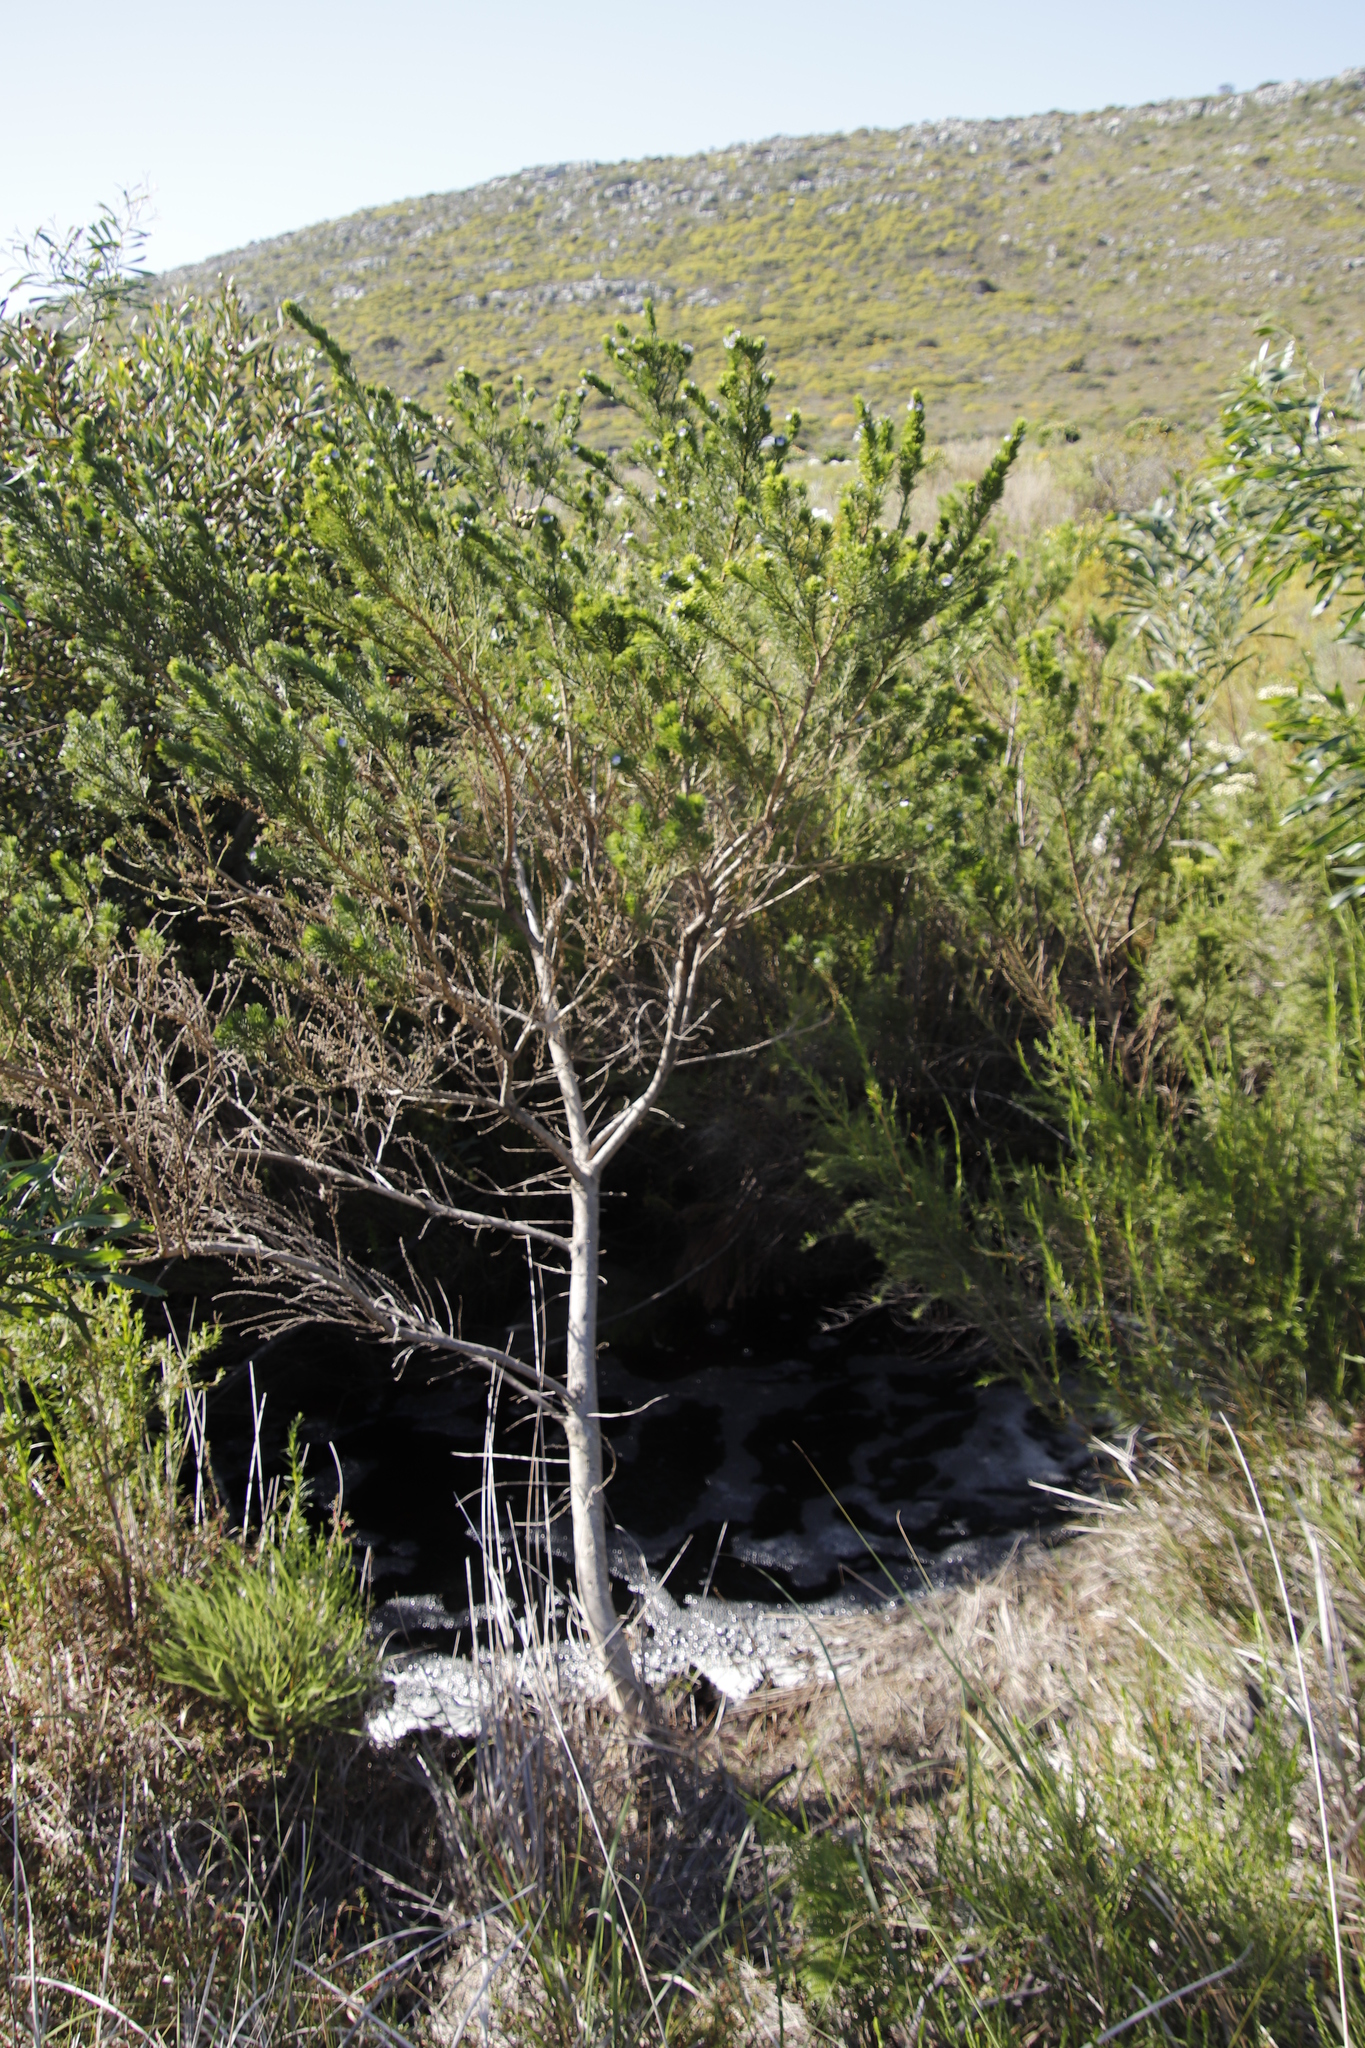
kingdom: Plantae
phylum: Tracheophyta
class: Magnoliopsida
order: Fabales
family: Fabaceae
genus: Psoralea
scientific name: Psoralea pinnata
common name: African scurfpea
